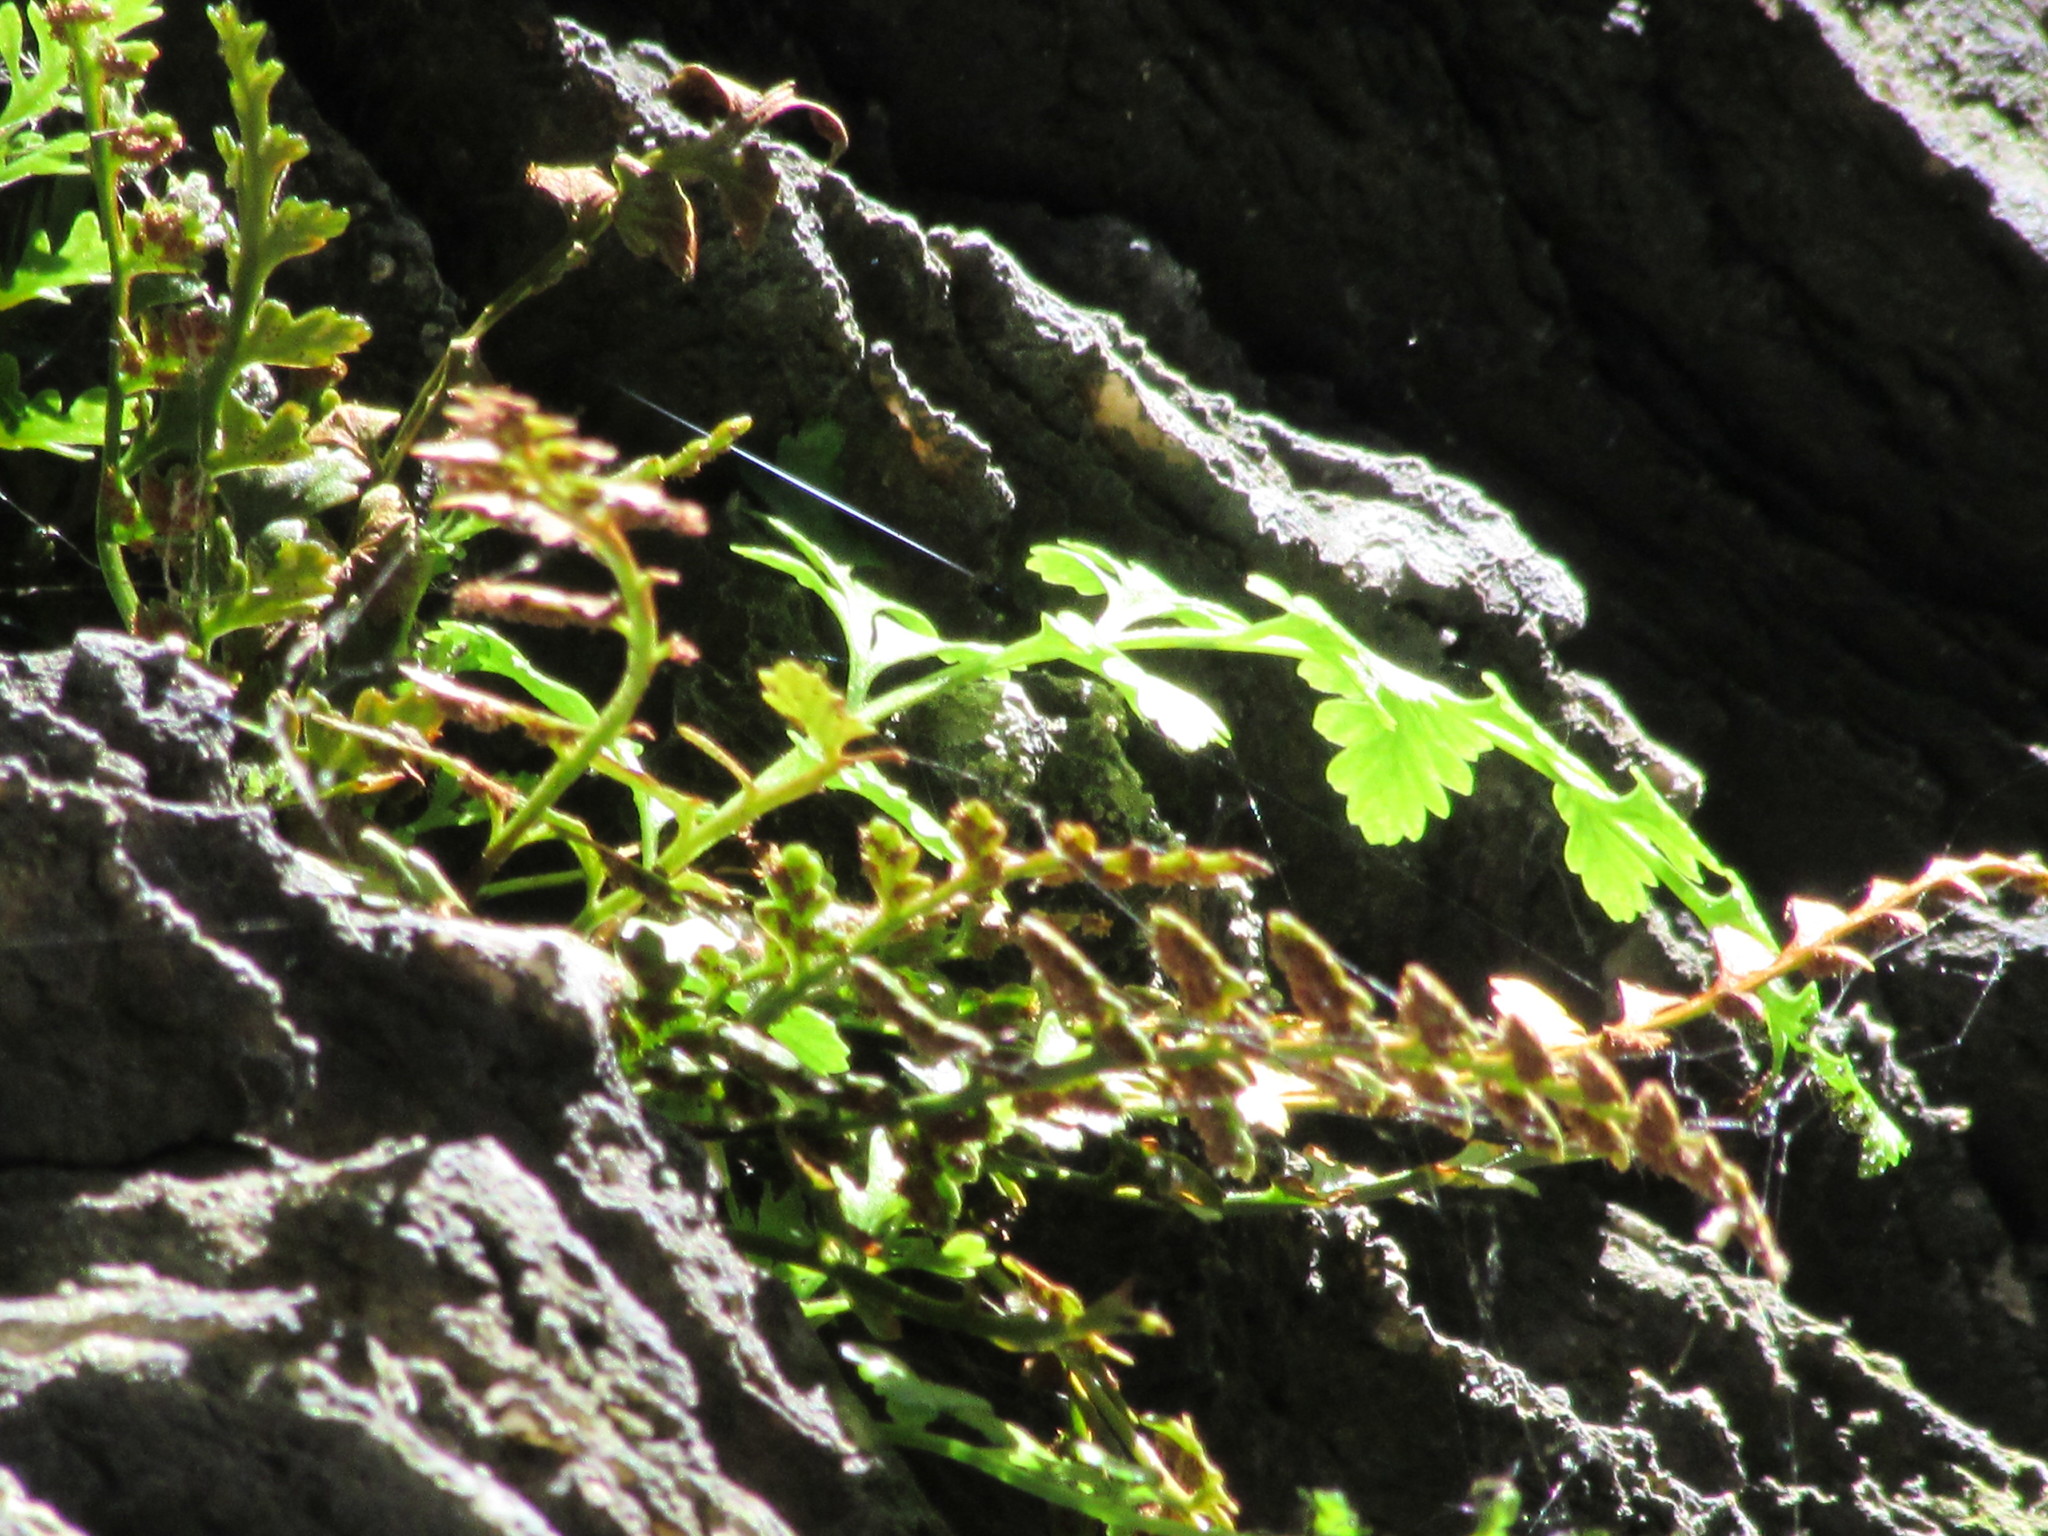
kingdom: Plantae
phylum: Tracheophyta
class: Polypodiopsida
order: Polypodiales
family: Aspleniaceae
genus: Asplenium
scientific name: Asplenium montanum
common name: Mountain spleenwort
